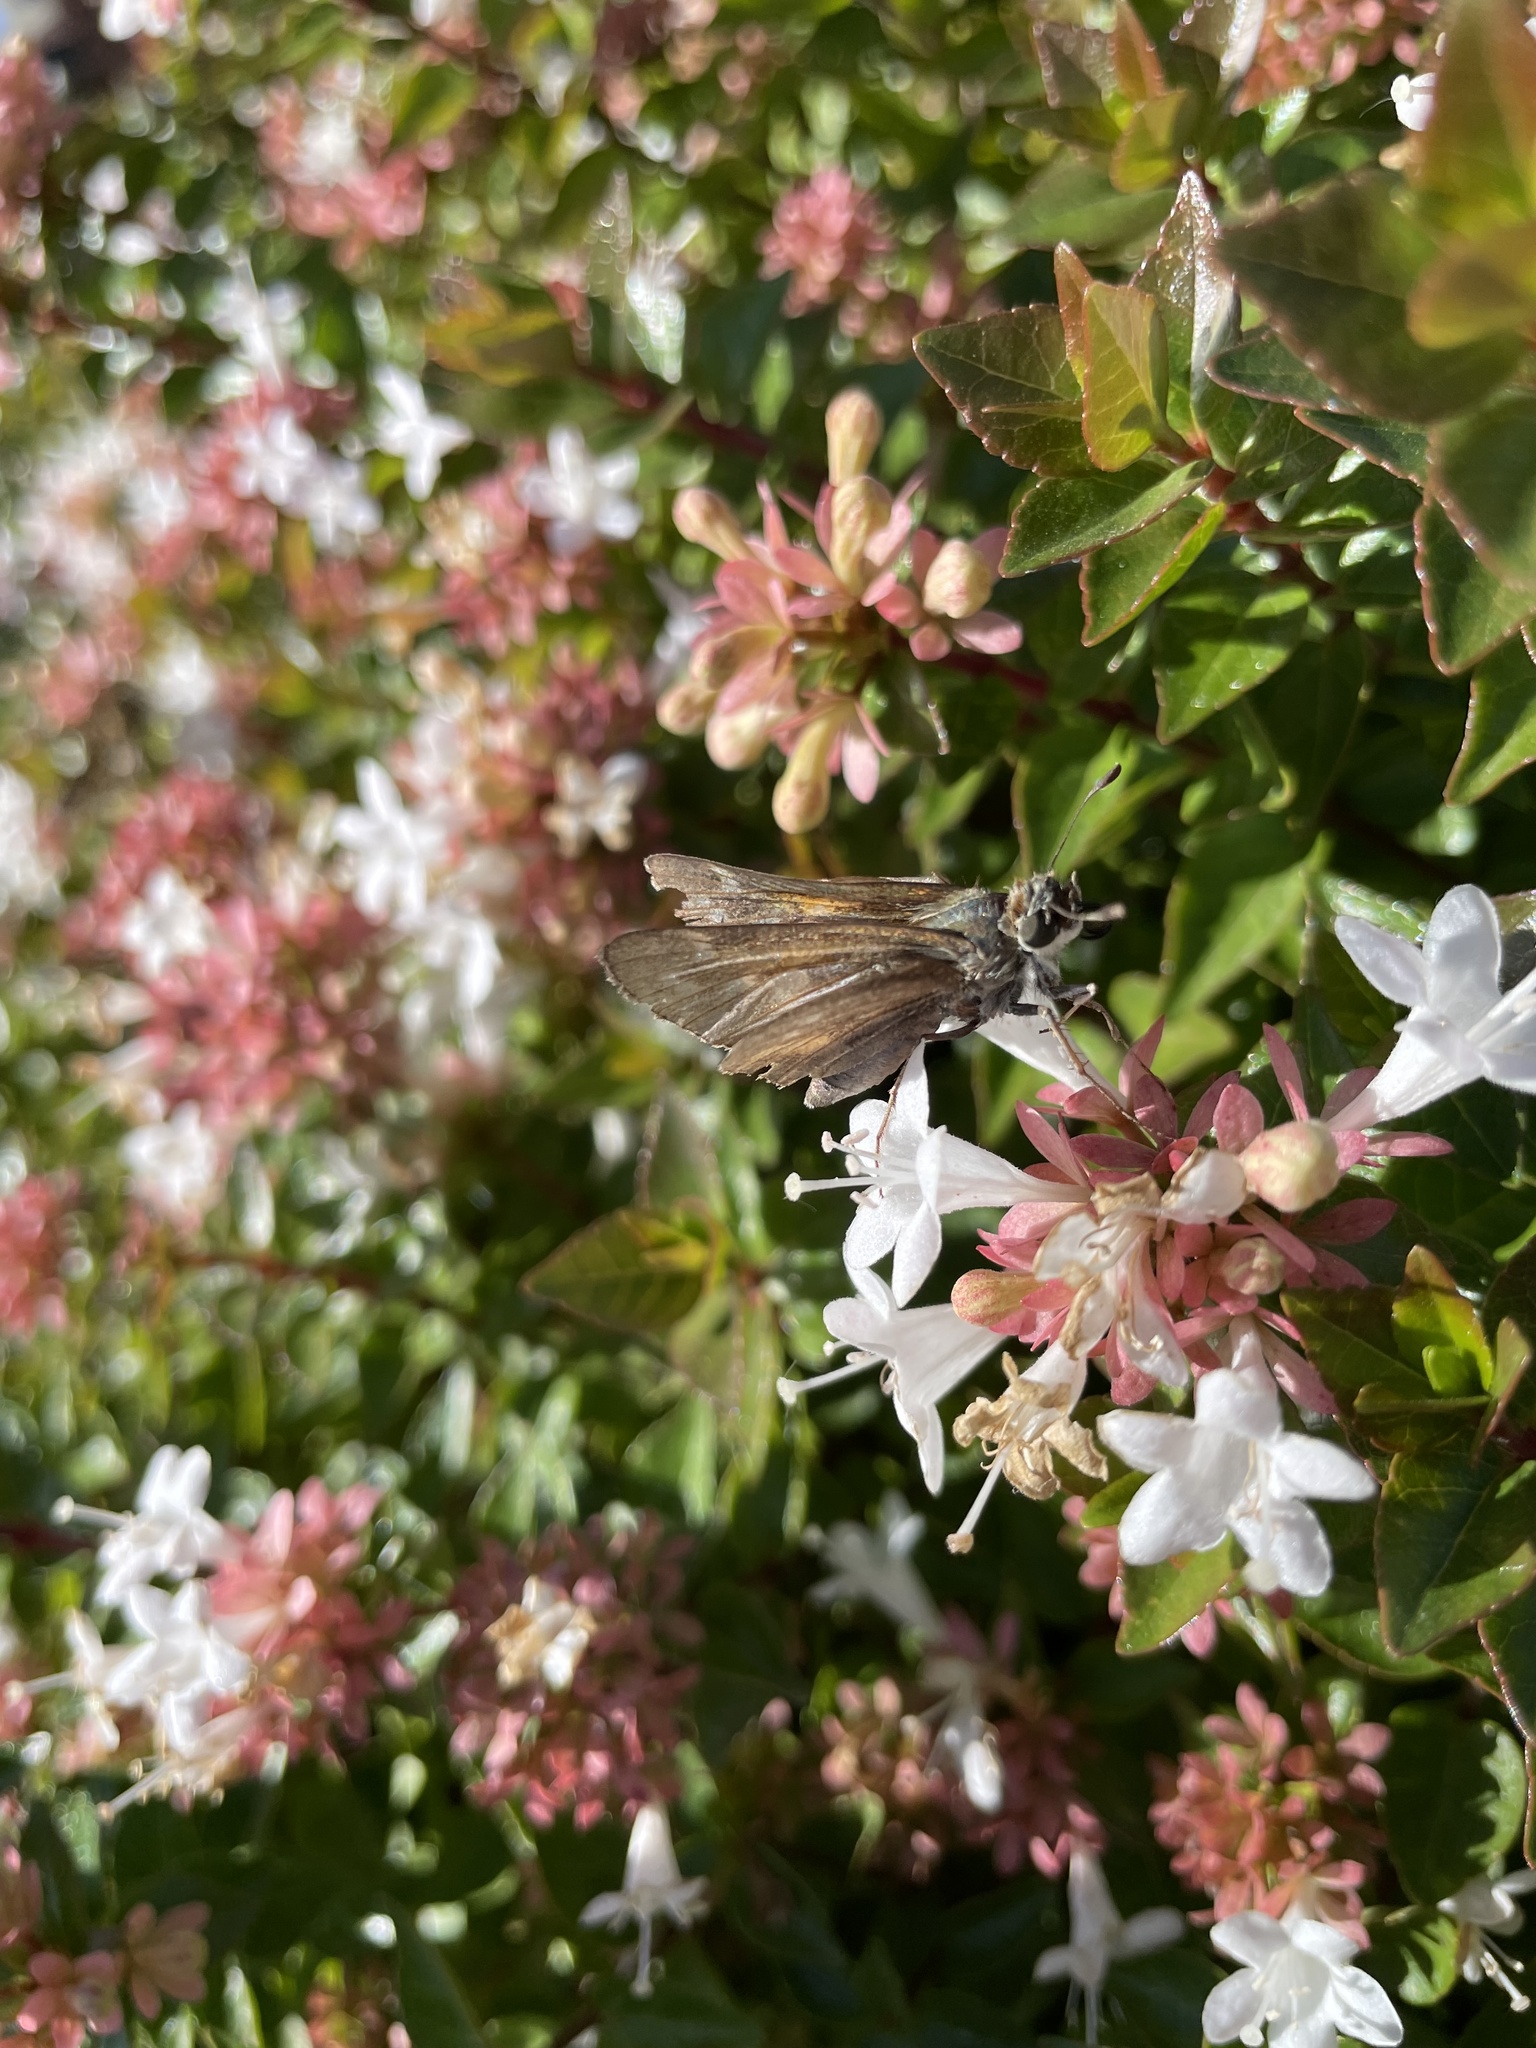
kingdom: Animalia
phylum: Arthropoda
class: Insecta
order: Lepidoptera
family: Hesperiidae
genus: Atalopedes
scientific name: Atalopedes
